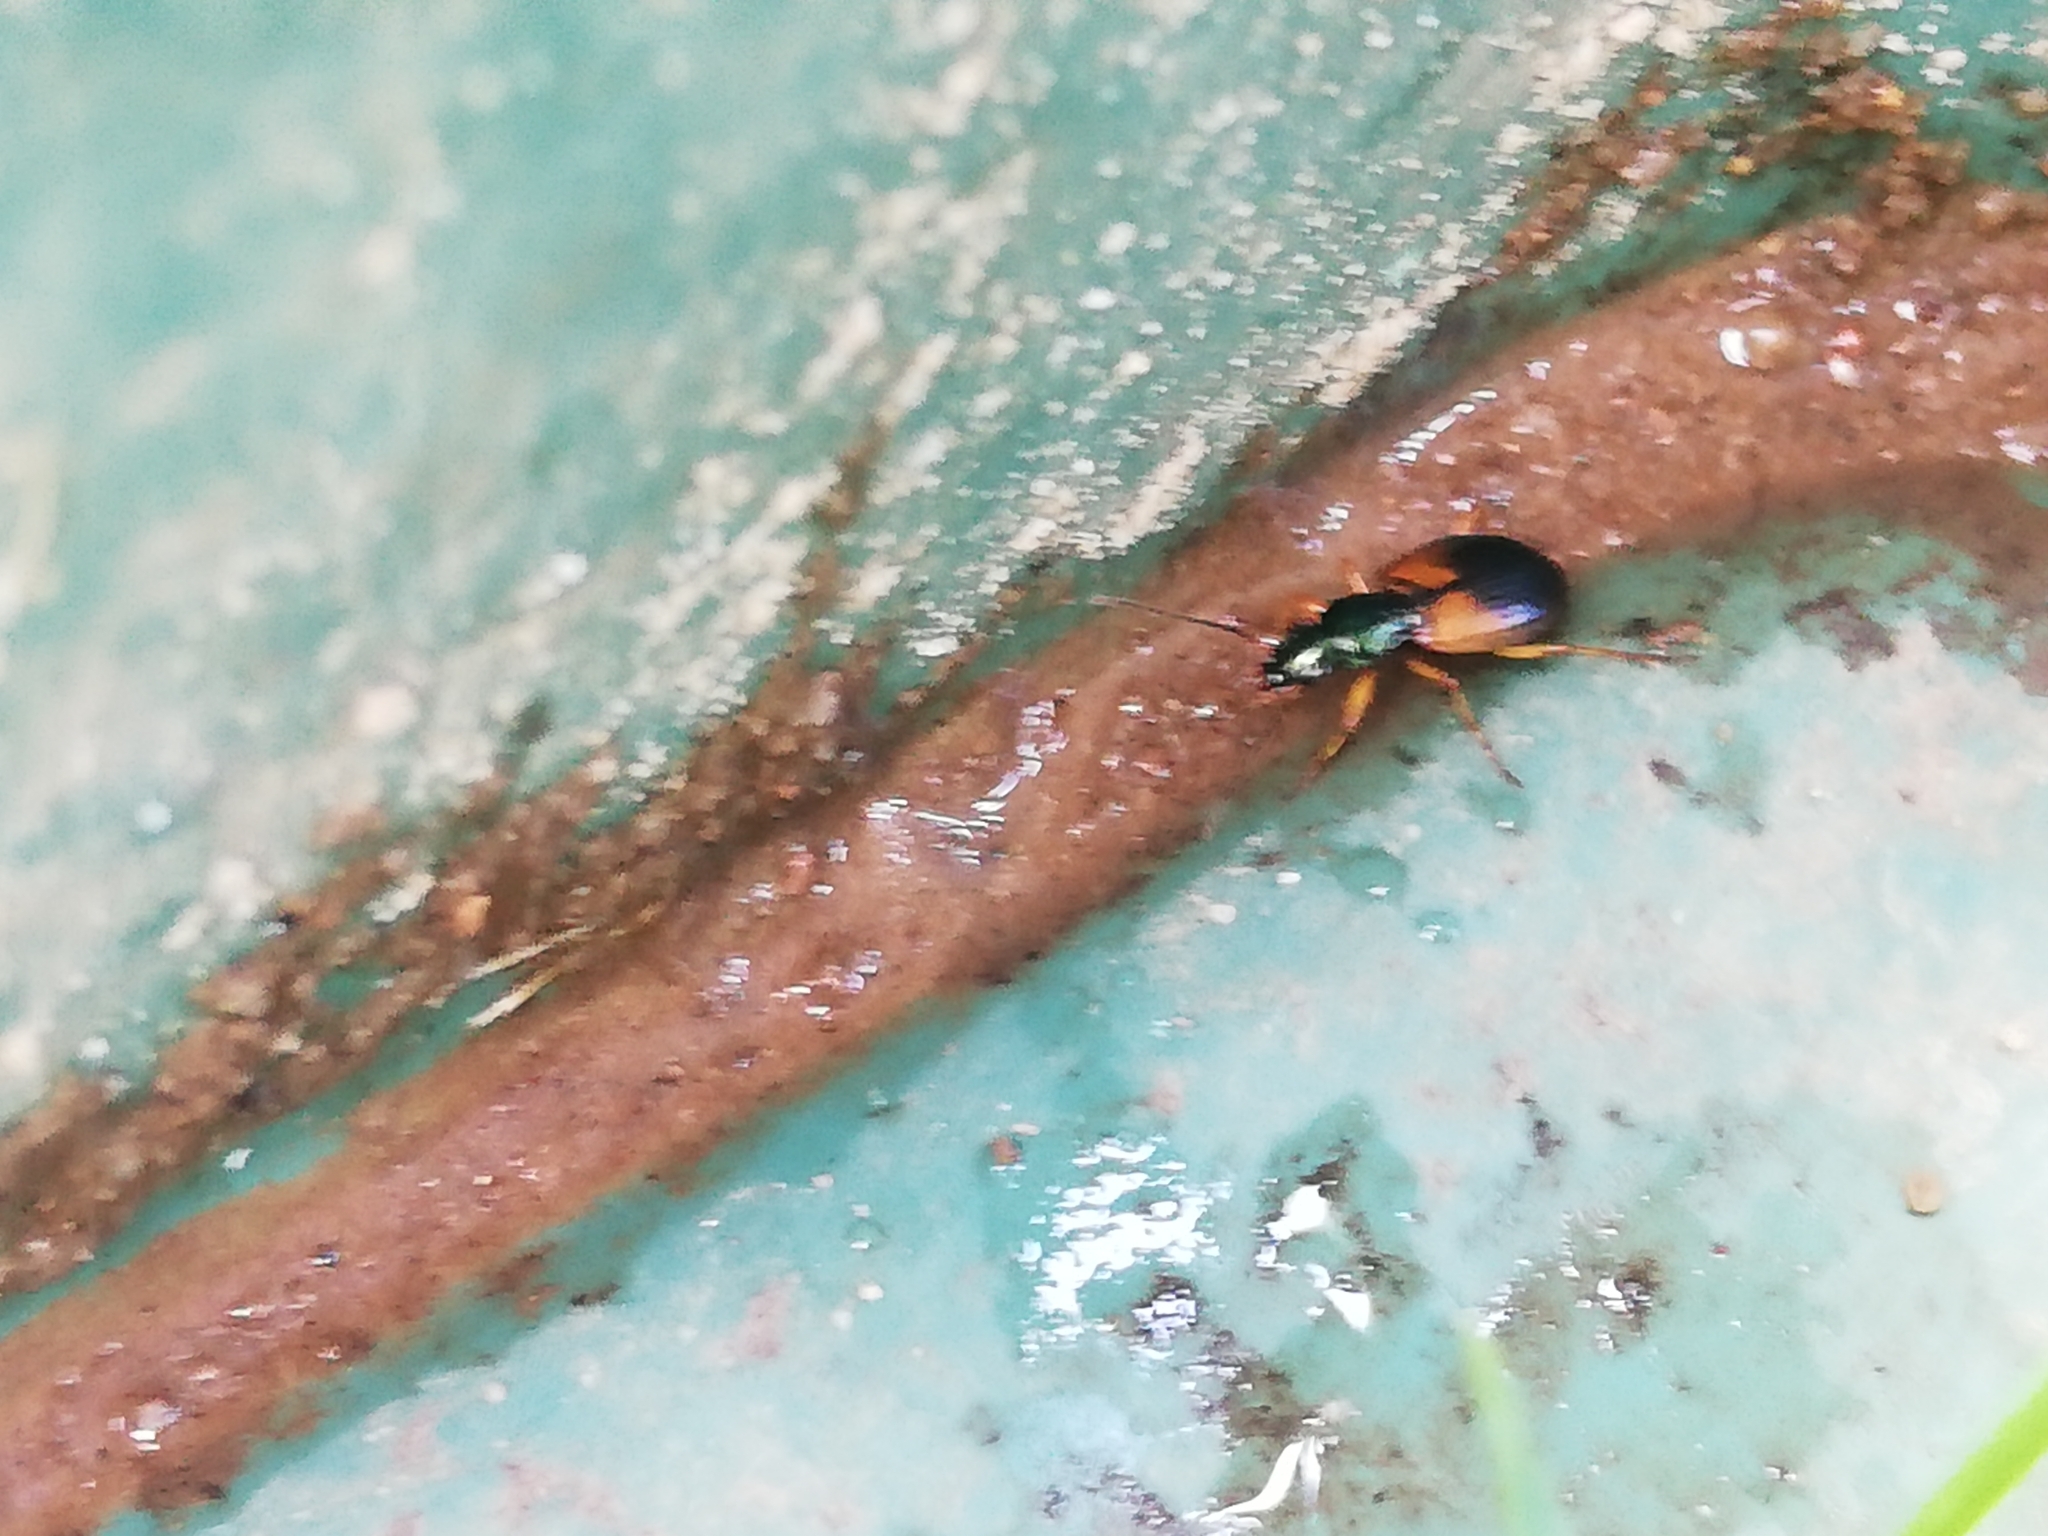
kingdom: Animalia
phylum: Arthropoda
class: Insecta
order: Coleoptera
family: Carabidae
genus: Anchomenus
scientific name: Anchomenus dorsalis
